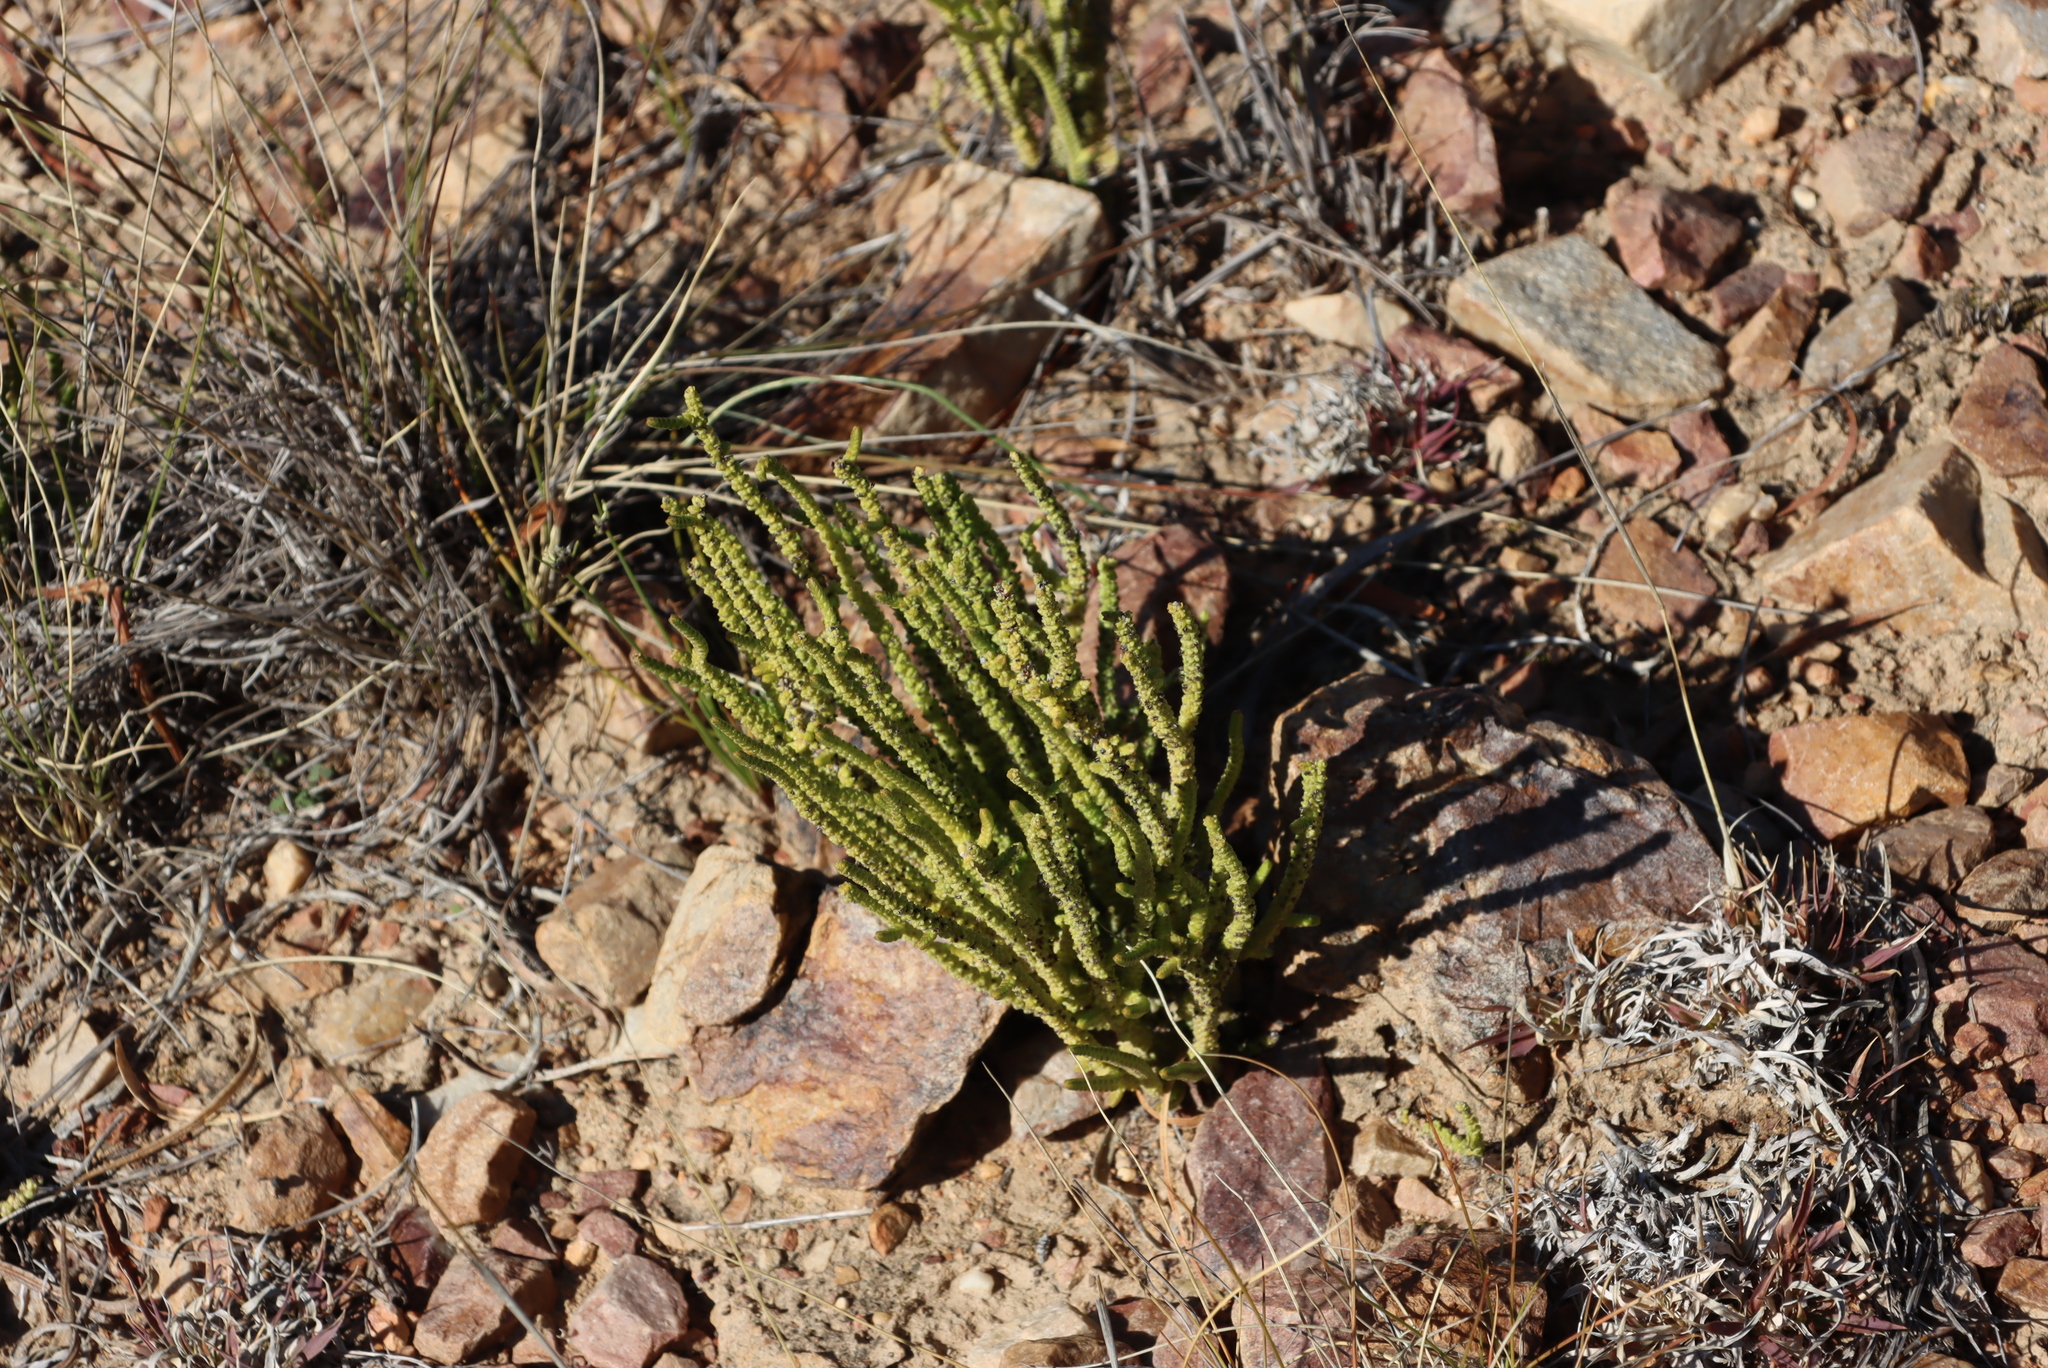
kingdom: Plantae
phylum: Tracheophyta
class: Magnoliopsida
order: Saxifragales
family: Crassulaceae
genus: Crassula
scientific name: Crassula muscosa
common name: Toy-cypress
